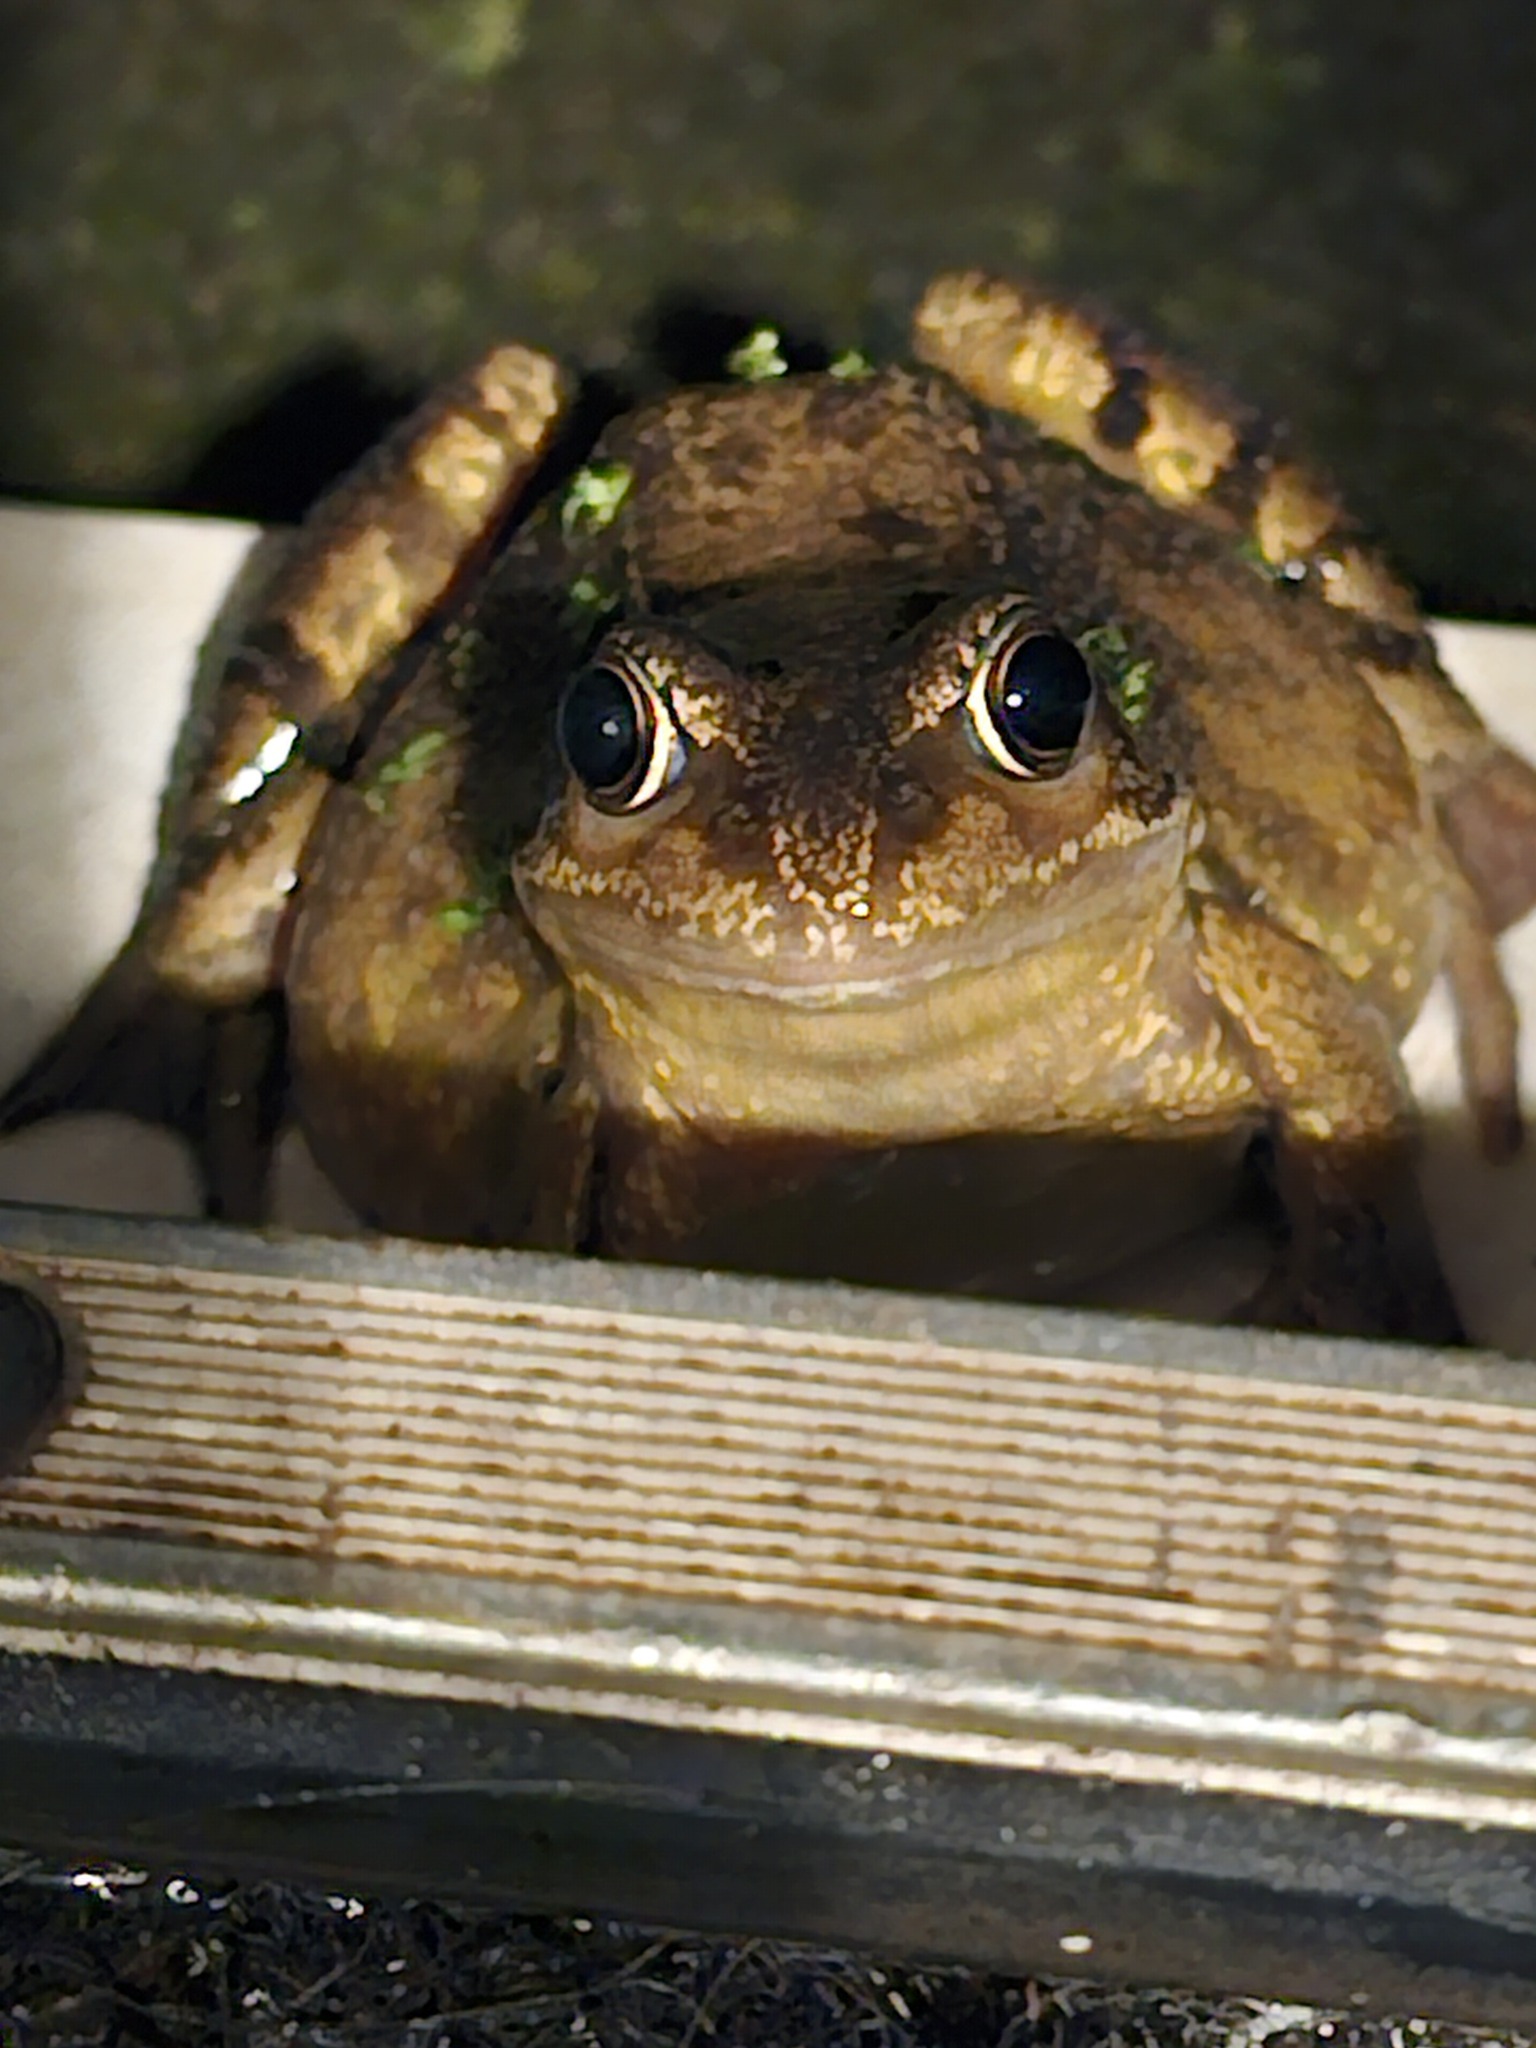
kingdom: Animalia
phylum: Chordata
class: Amphibia
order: Anura
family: Ranidae
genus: Rana
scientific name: Rana temporaria
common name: Common frog
